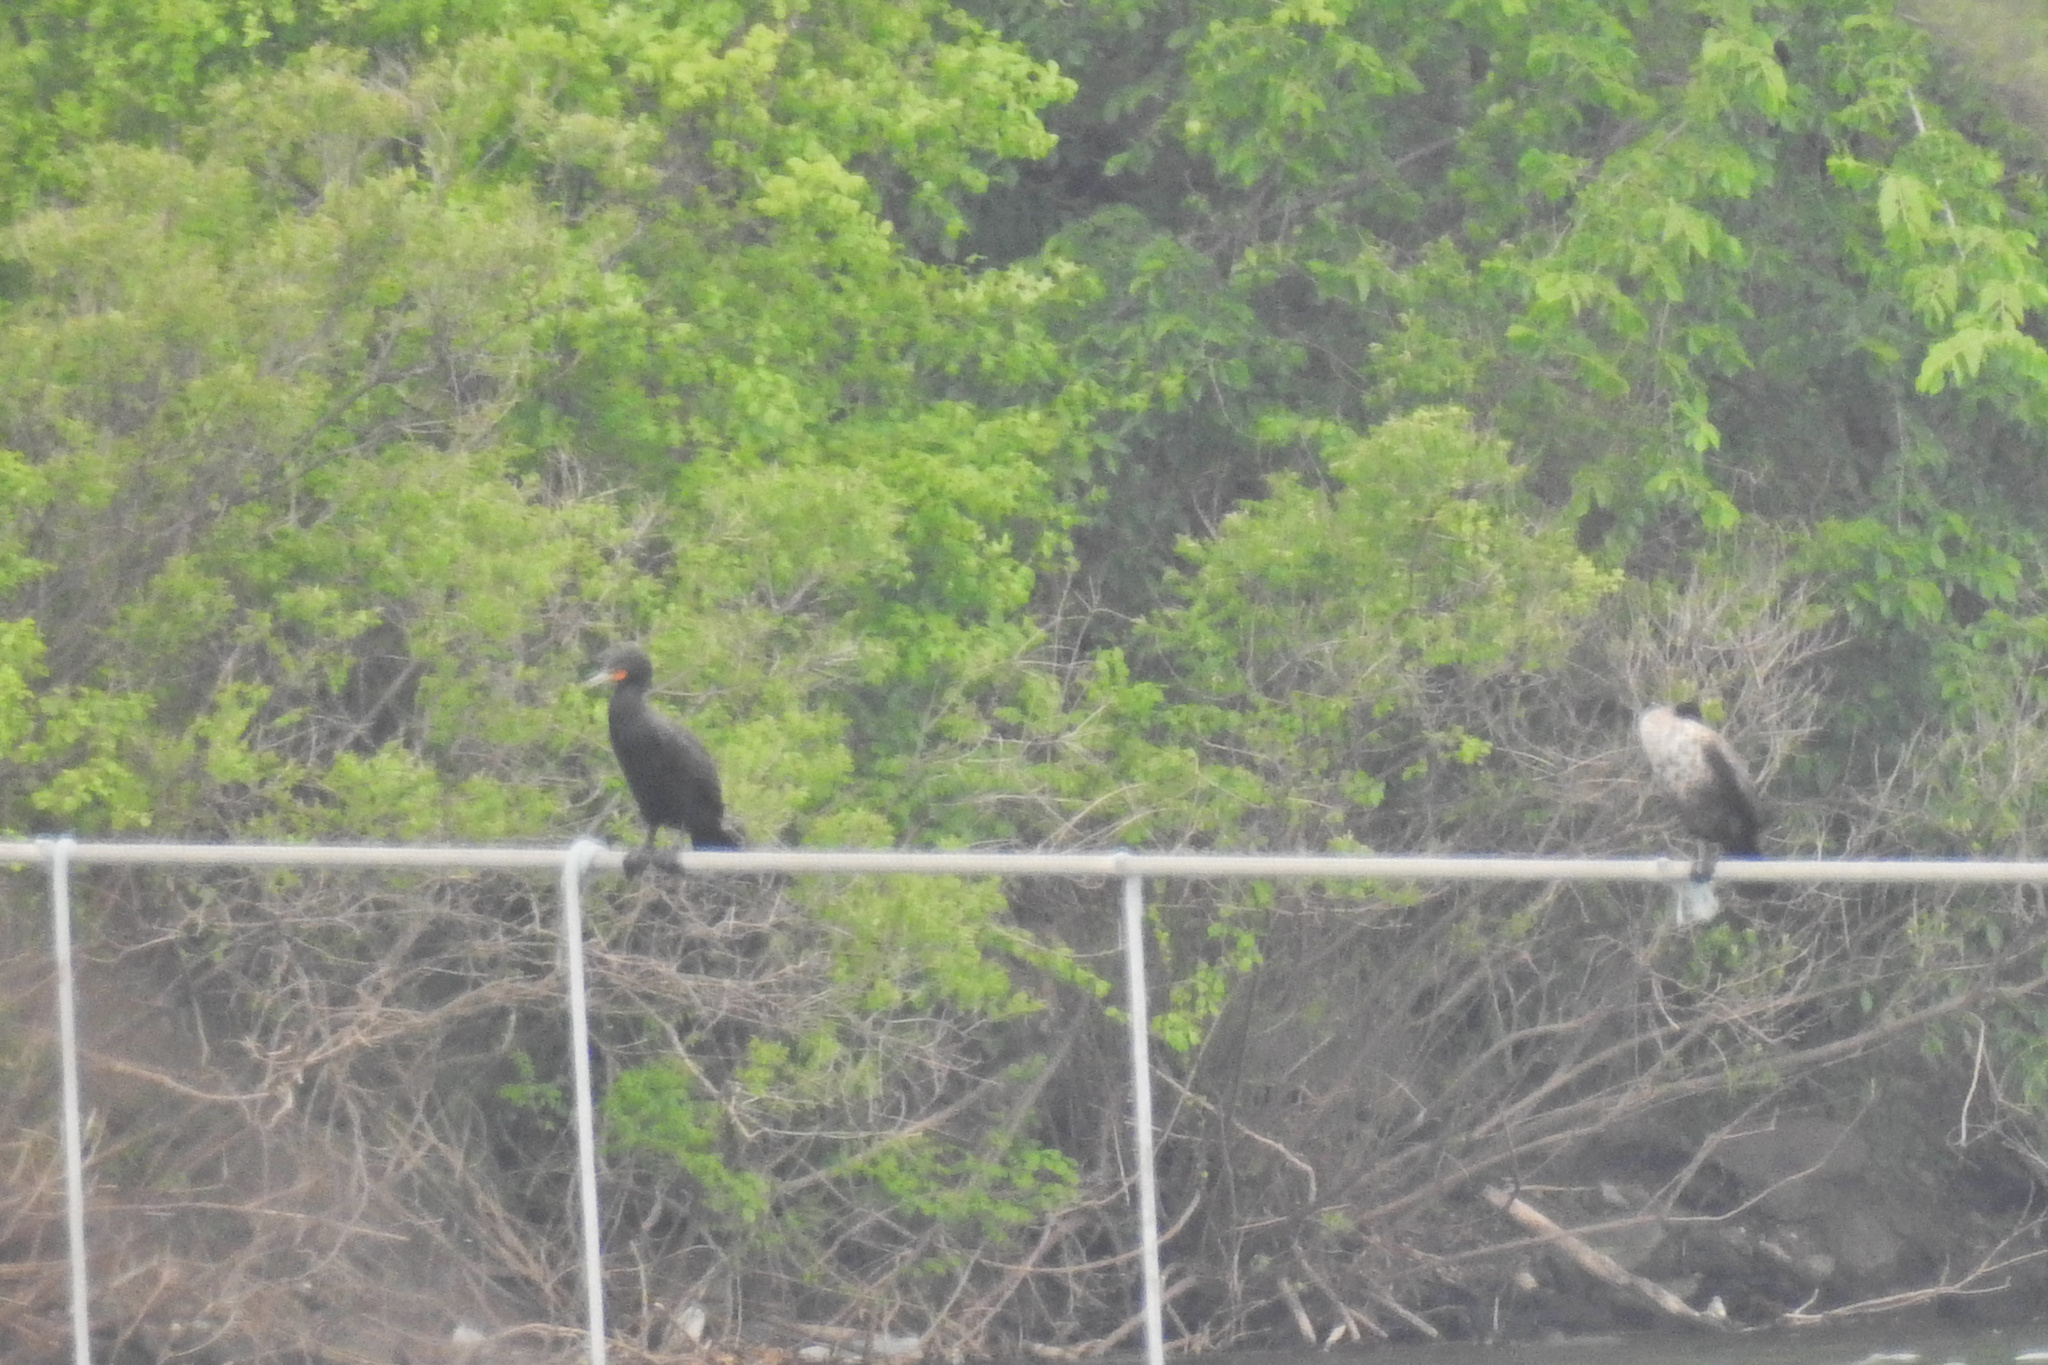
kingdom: Animalia
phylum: Chordata
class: Aves
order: Suliformes
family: Phalacrocoracidae
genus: Phalacrocorax
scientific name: Phalacrocorax auritus
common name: Double-crested cormorant
